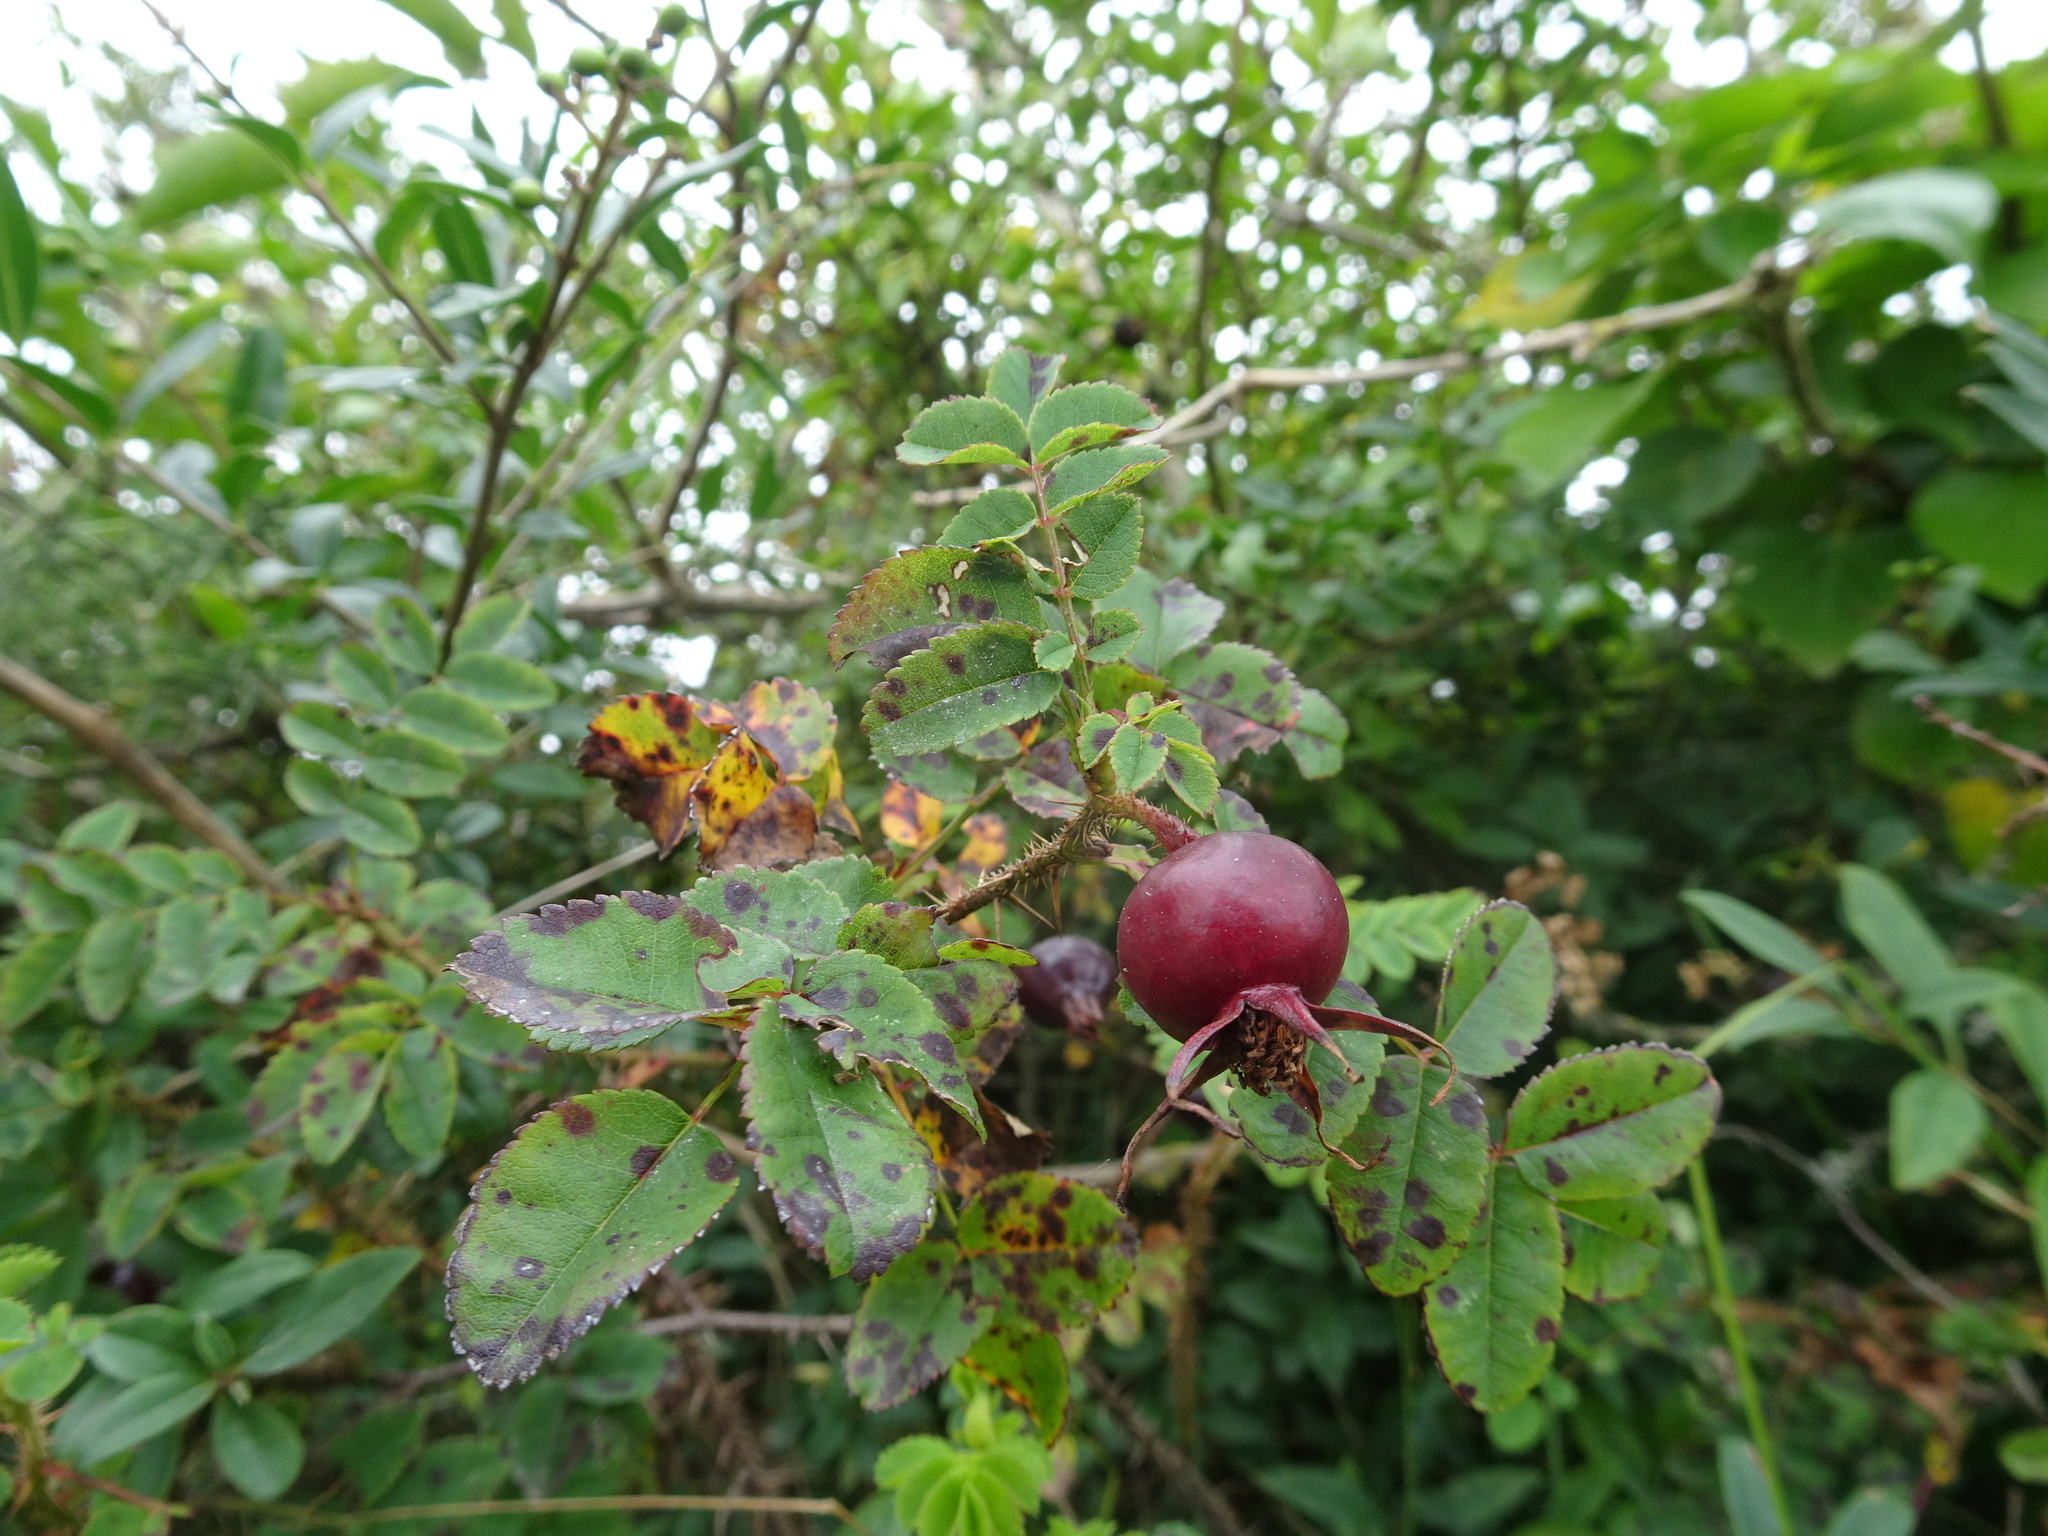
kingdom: Plantae
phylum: Tracheophyta
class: Magnoliopsida
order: Rosales
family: Rosaceae
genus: Rosa
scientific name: Rosa spinosissima
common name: Burnet rose
